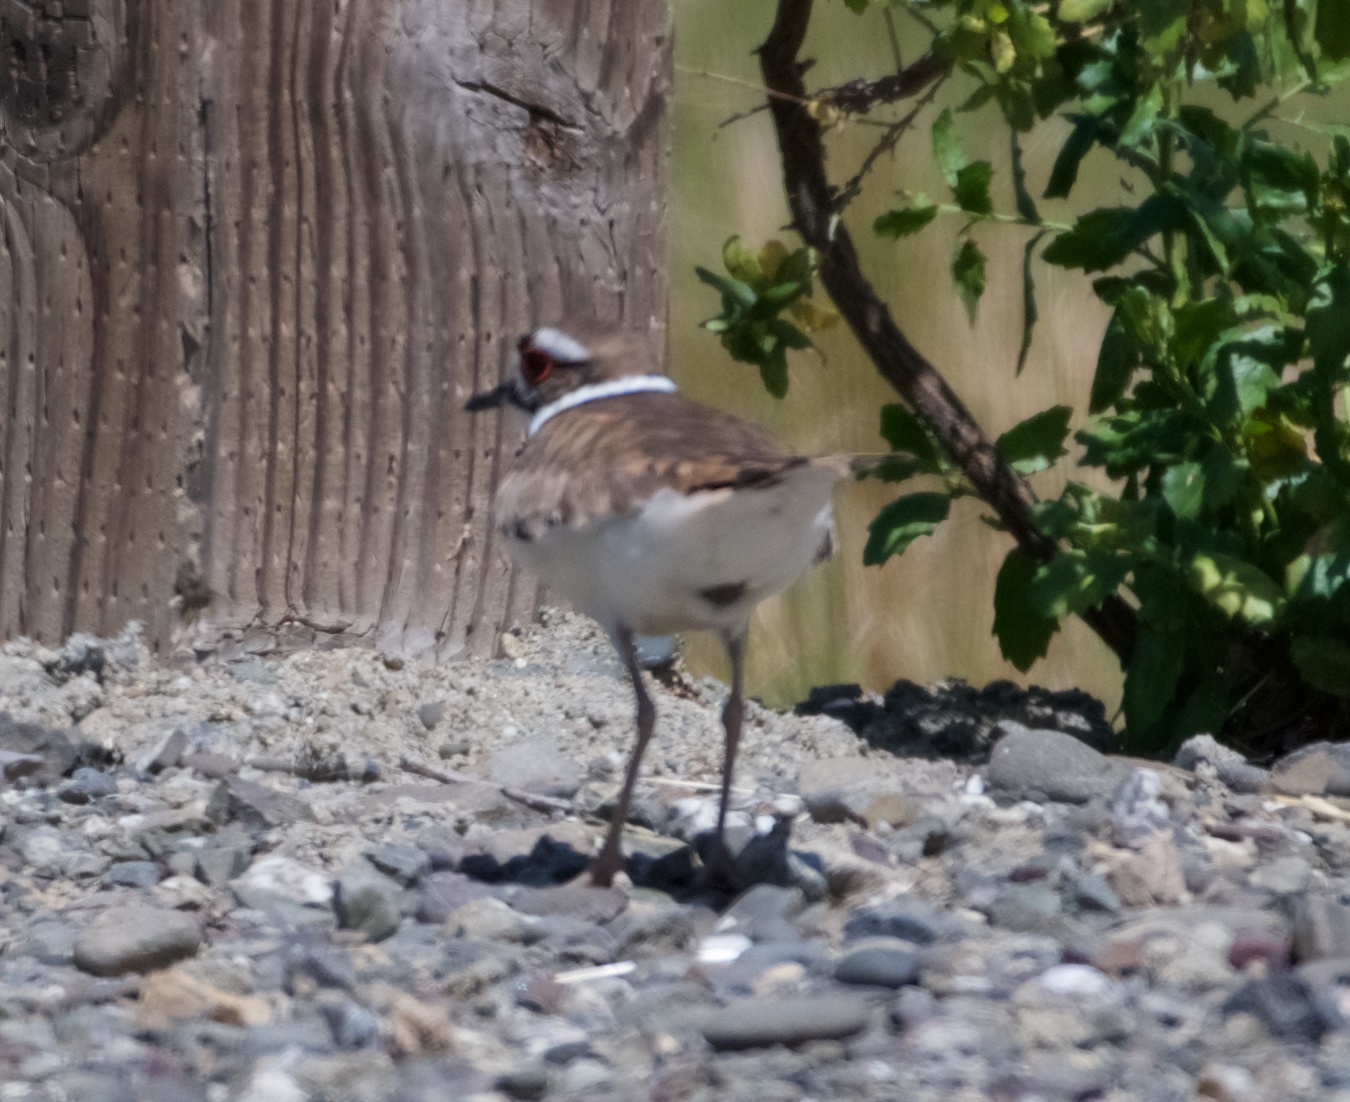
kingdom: Animalia
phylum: Chordata
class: Aves
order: Charadriiformes
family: Charadriidae
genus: Charadrius
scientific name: Charadrius vociferus
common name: Killdeer
